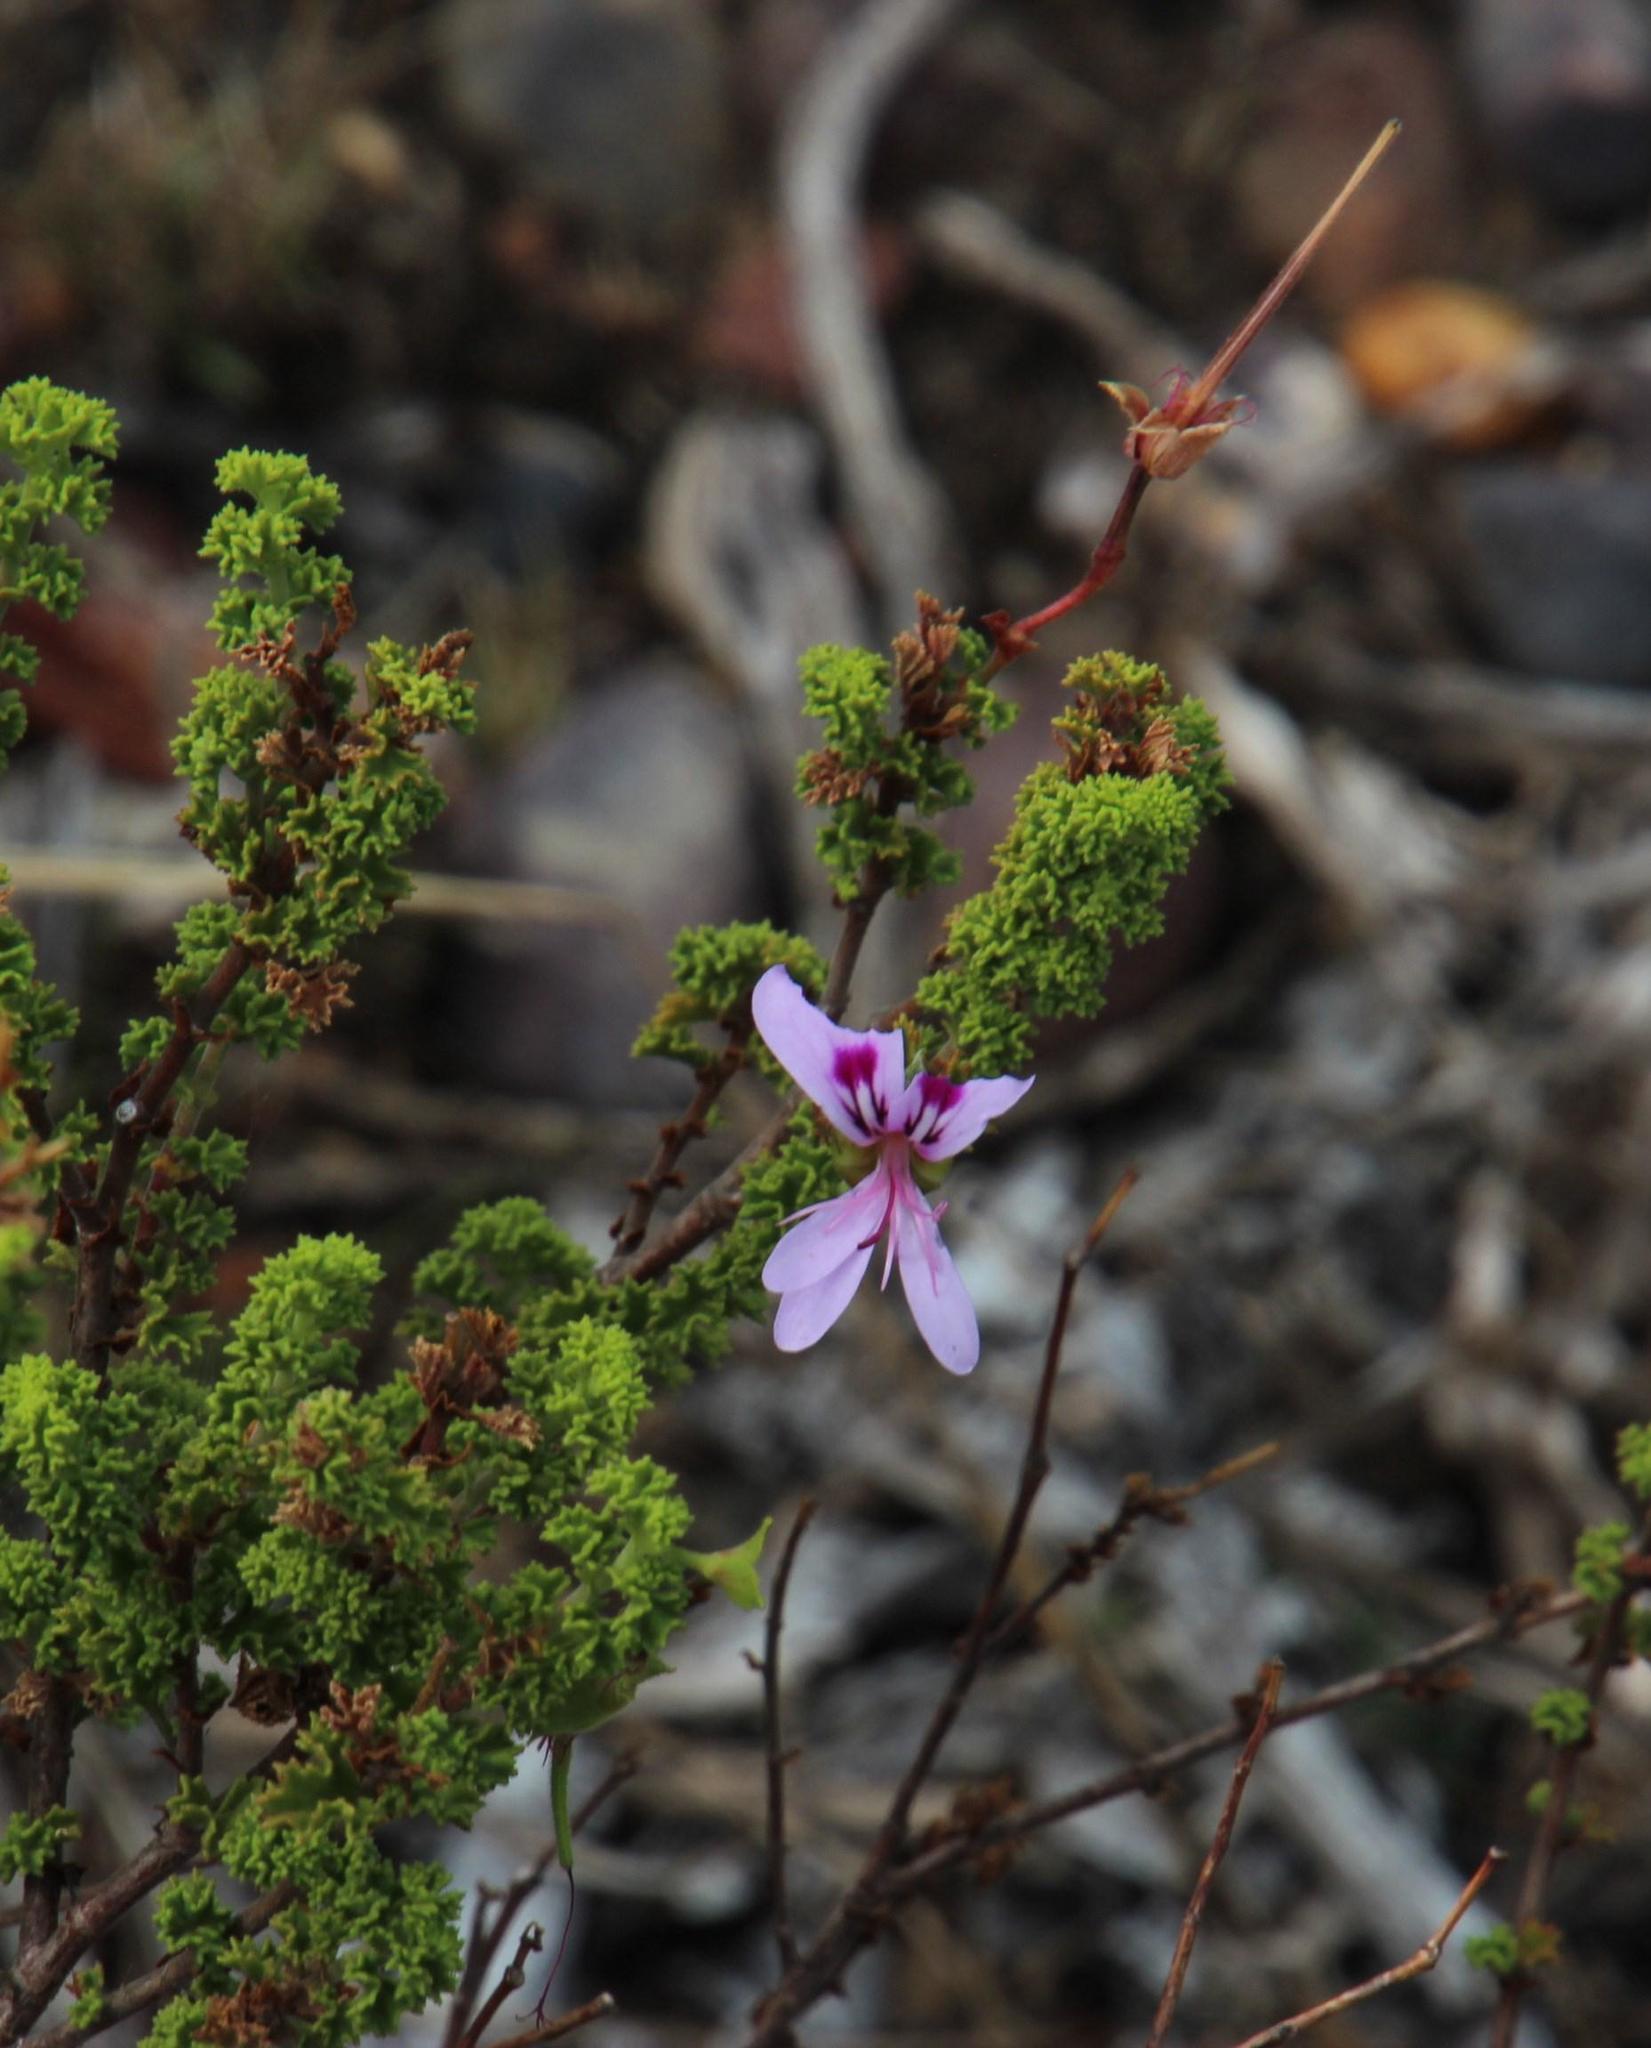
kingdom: Plantae
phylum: Tracheophyta
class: Magnoliopsida
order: Geraniales
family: Geraniaceae
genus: Pelargonium
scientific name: Pelargonium crispum
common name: Crisped-leaf pelargonium
